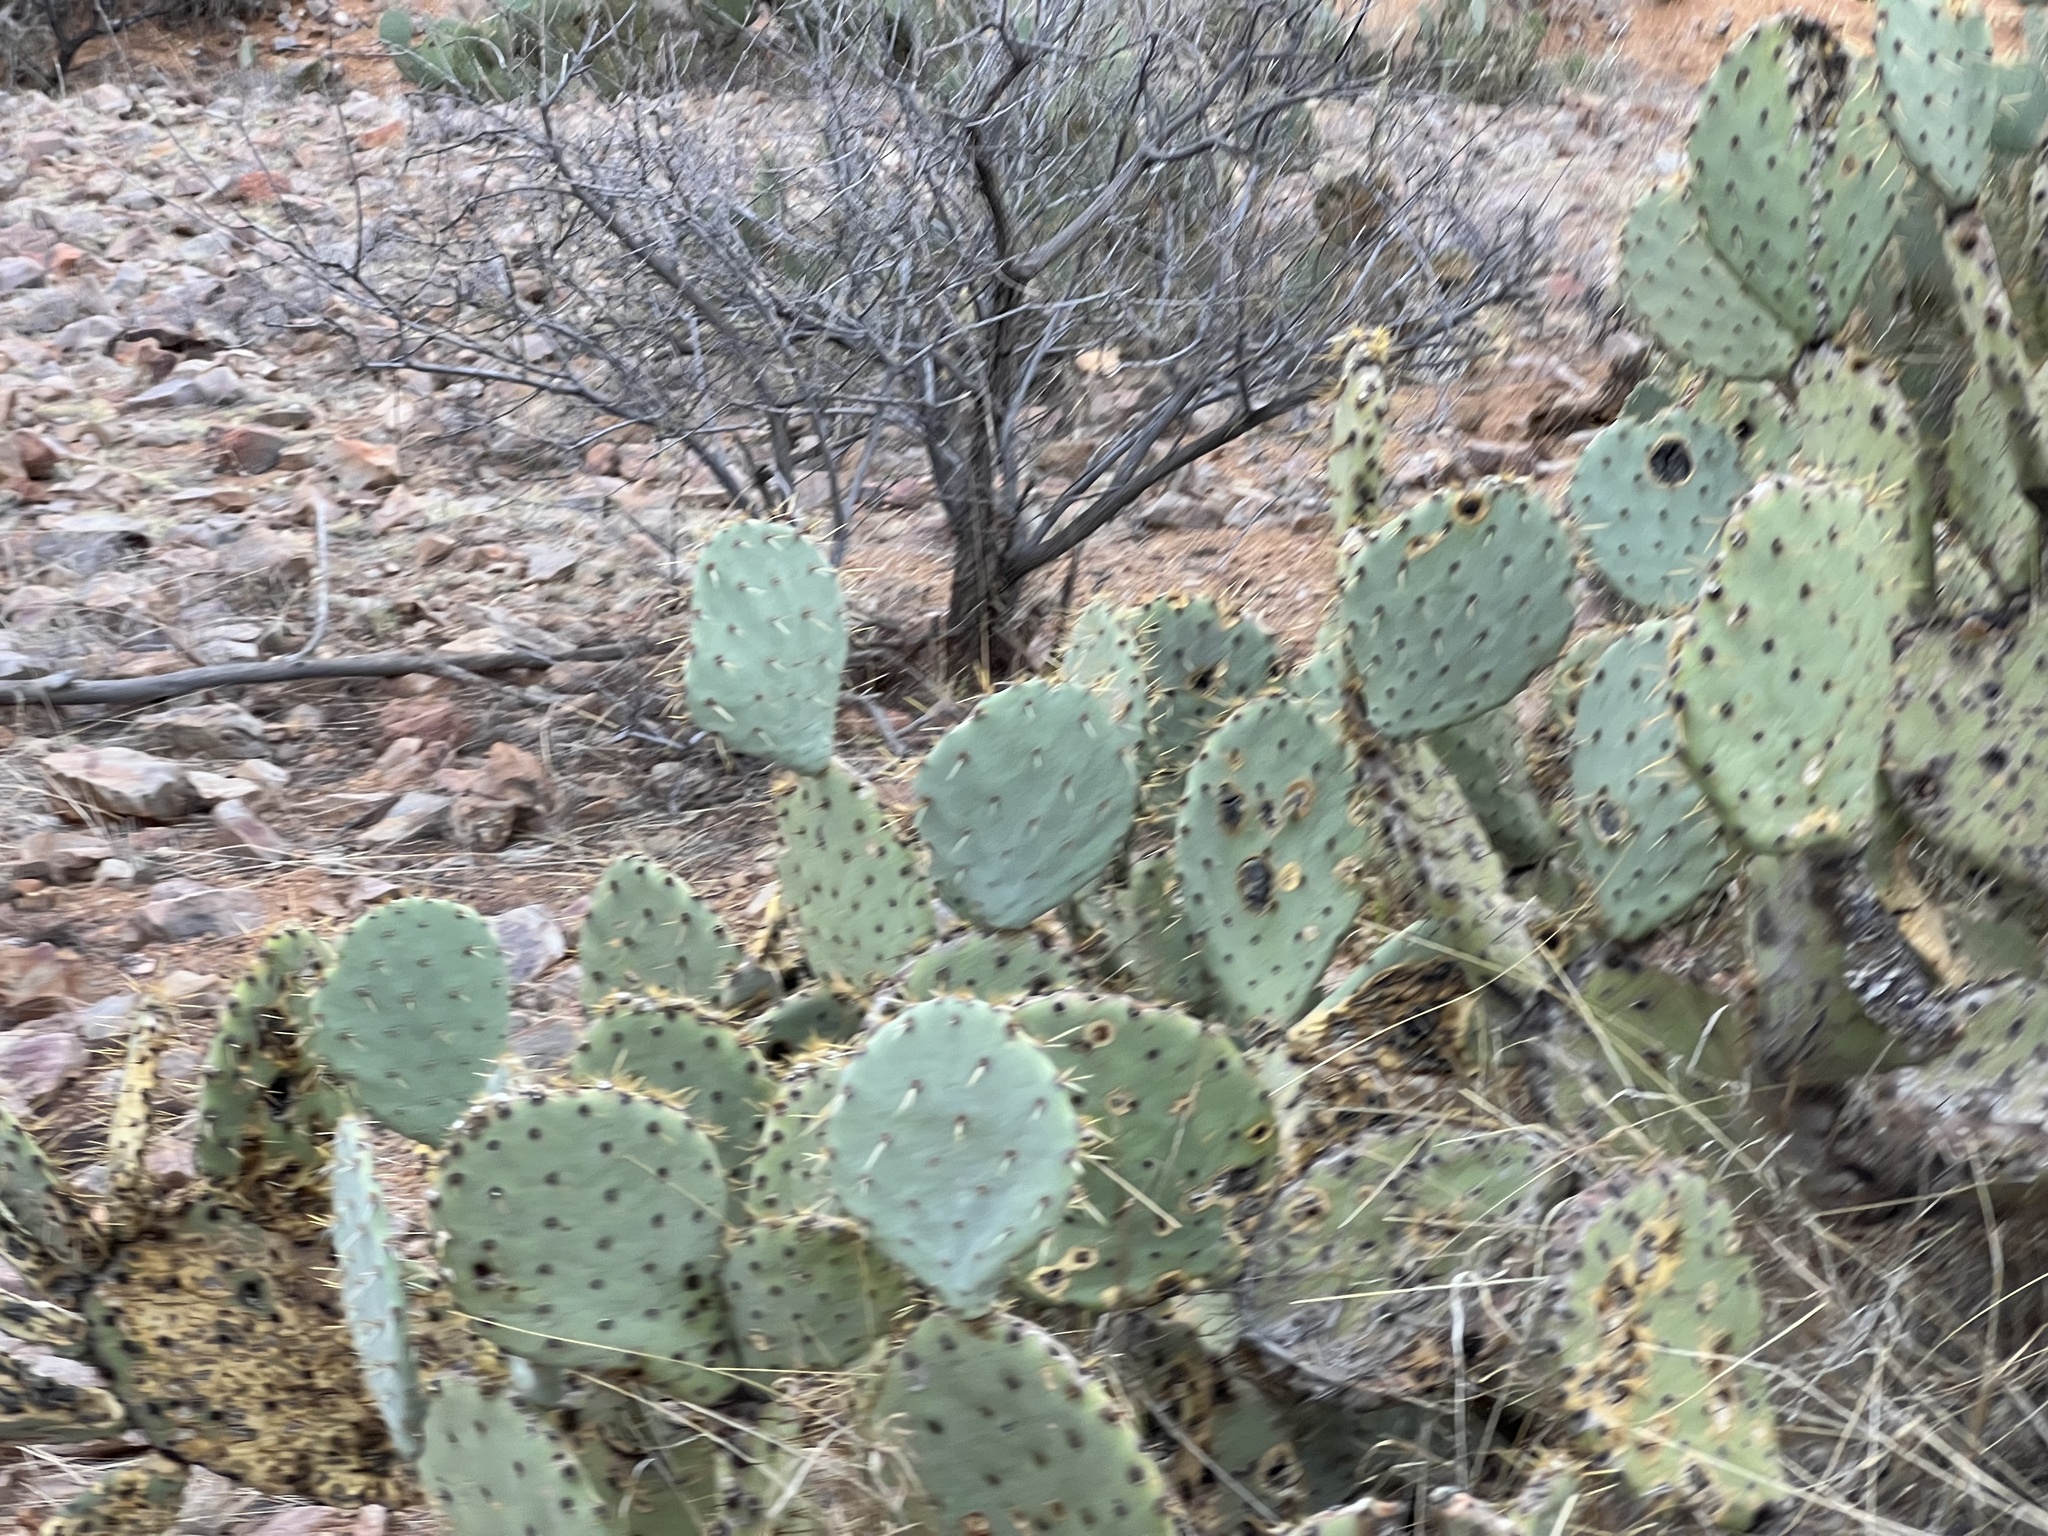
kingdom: Plantae
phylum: Tracheophyta
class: Magnoliopsida
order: Caryophyllales
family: Cactaceae
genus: Opuntia
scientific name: Opuntia engelmannii
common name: Cactus-apple
